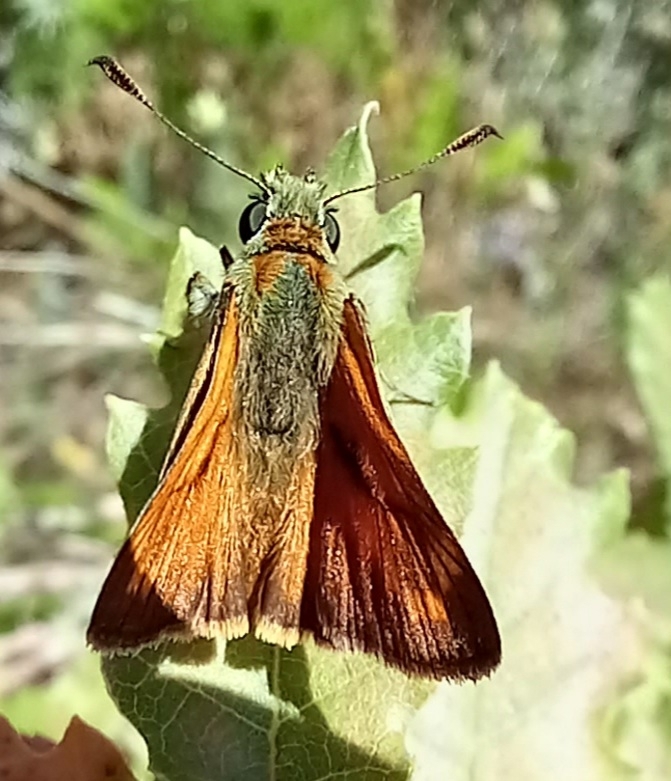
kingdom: Animalia
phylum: Arthropoda
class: Insecta
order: Lepidoptera
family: Hesperiidae
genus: Ochlodes
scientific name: Ochlodes venata
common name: Large skipper
